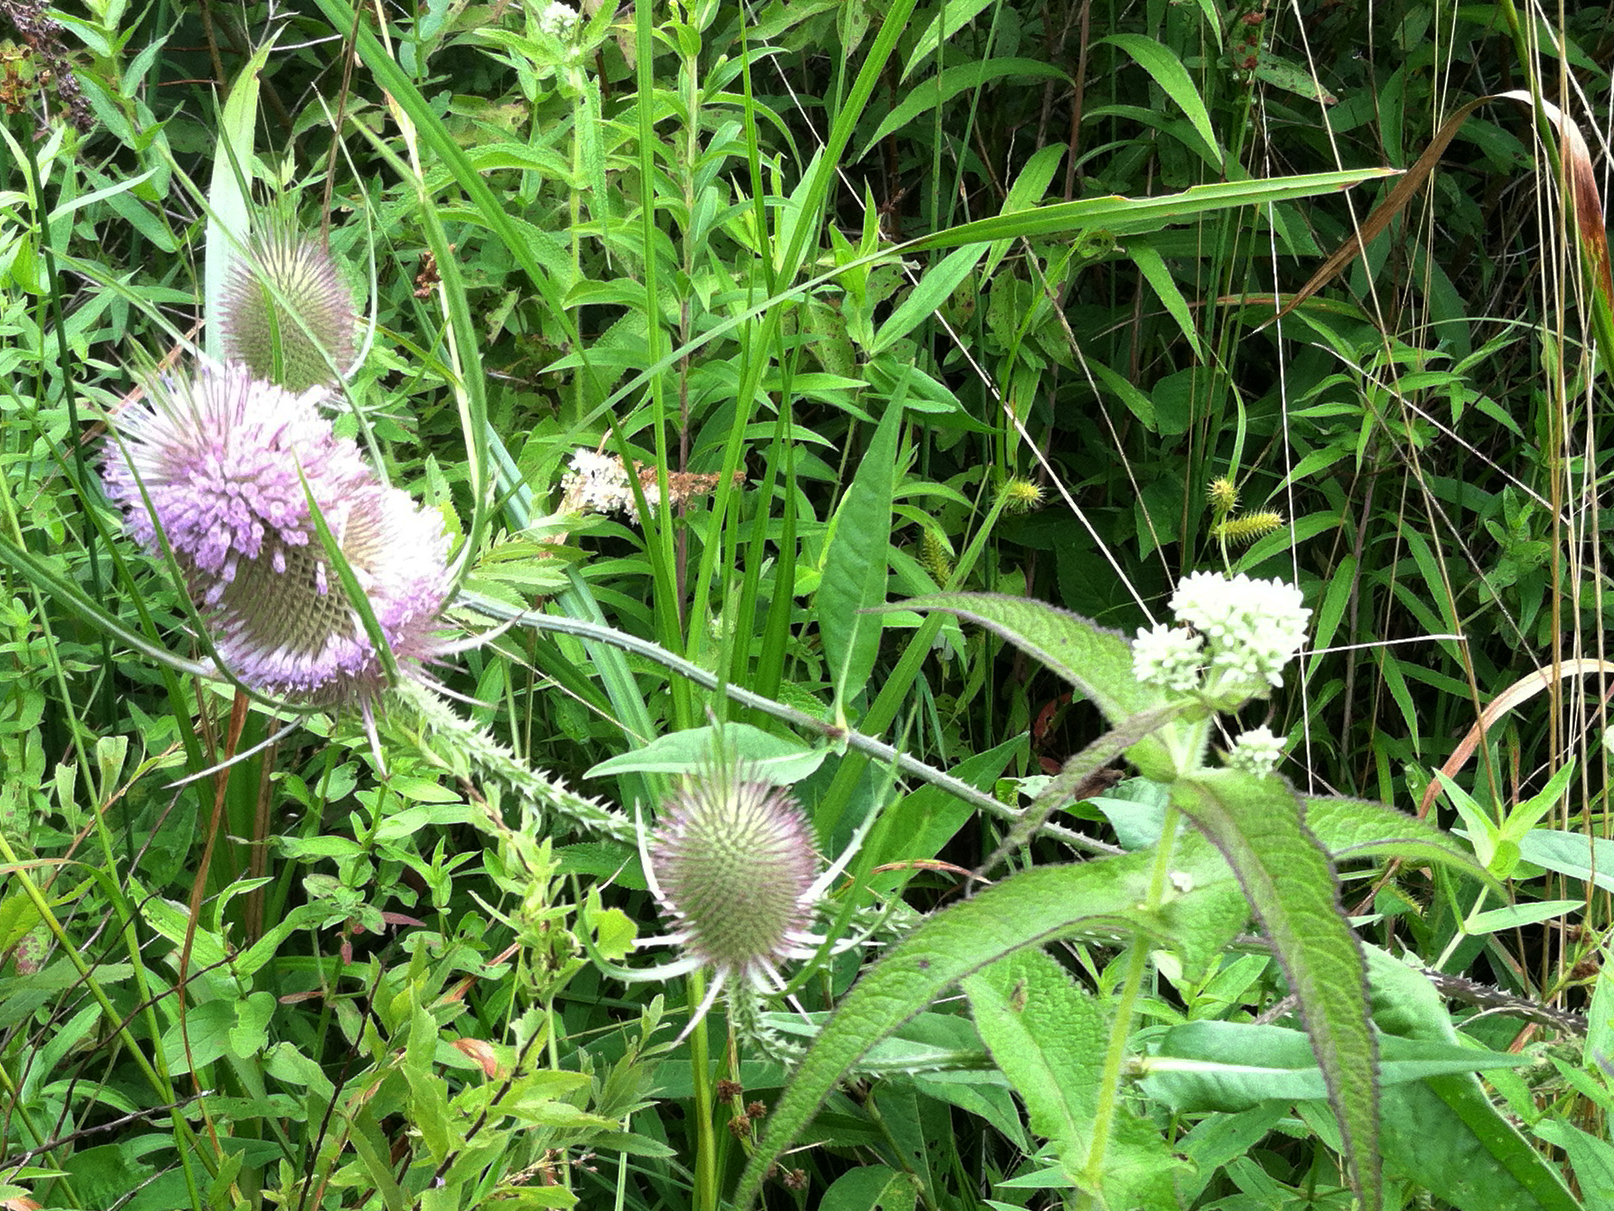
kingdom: Plantae
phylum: Tracheophyta
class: Magnoliopsida
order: Dipsacales
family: Caprifoliaceae
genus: Dipsacus
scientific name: Dipsacus fullonum
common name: Teasel
